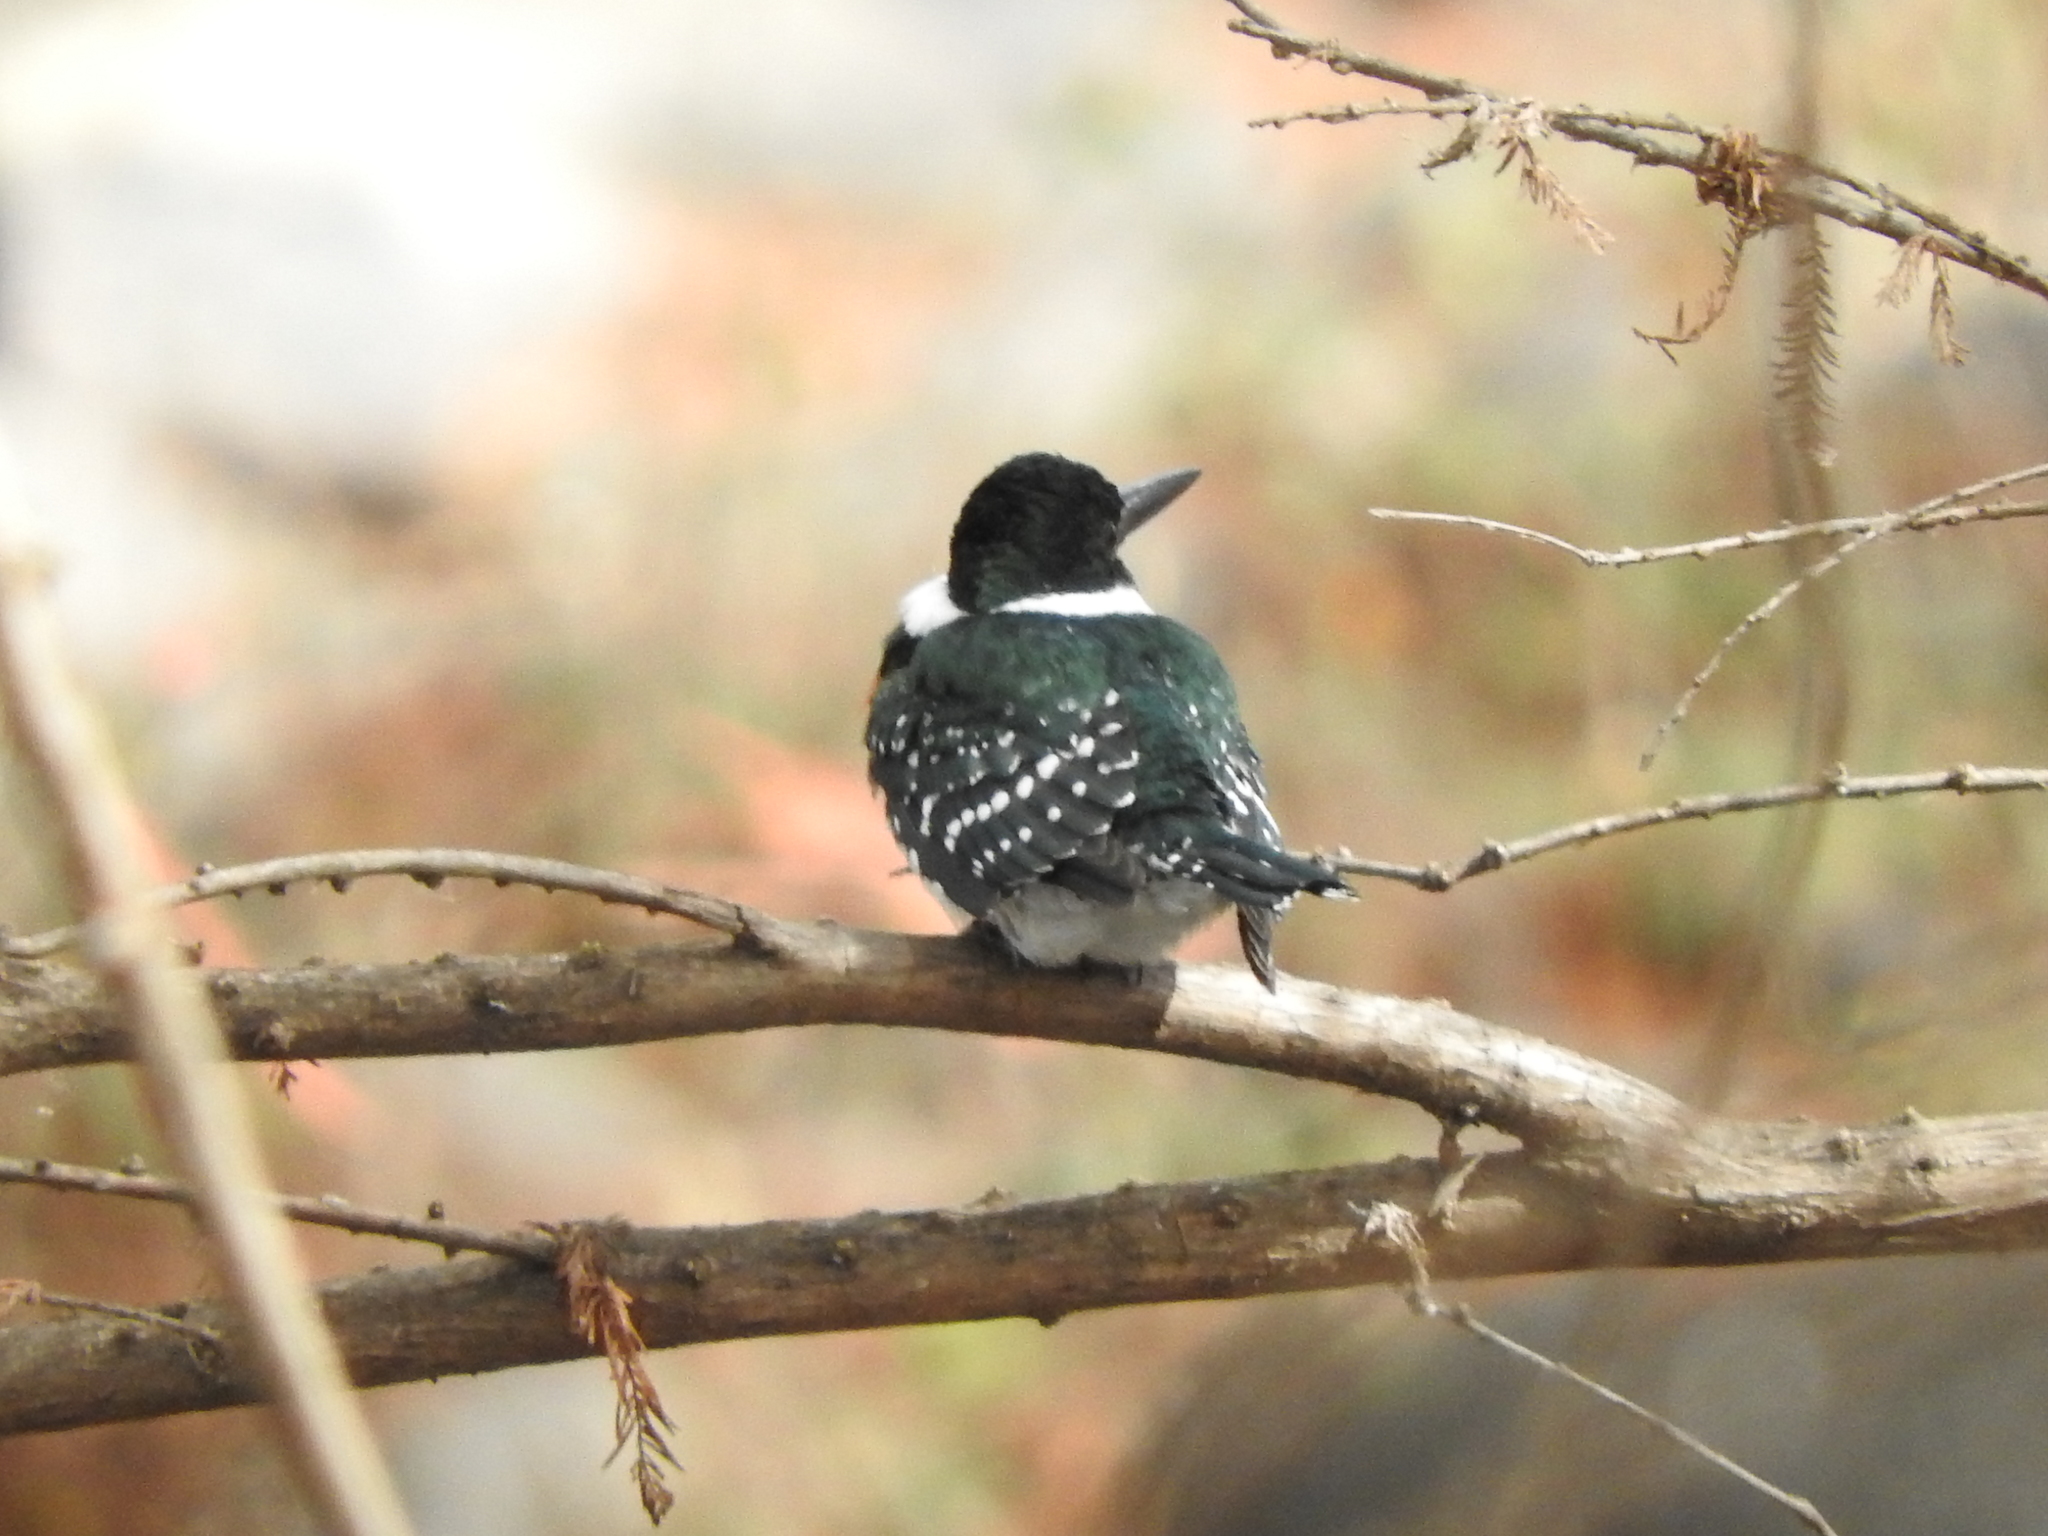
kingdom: Animalia
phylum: Chordata
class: Aves
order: Coraciiformes
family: Alcedinidae
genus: Chloroceryle
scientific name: Chloroceryle americana
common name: Green kingfisher
